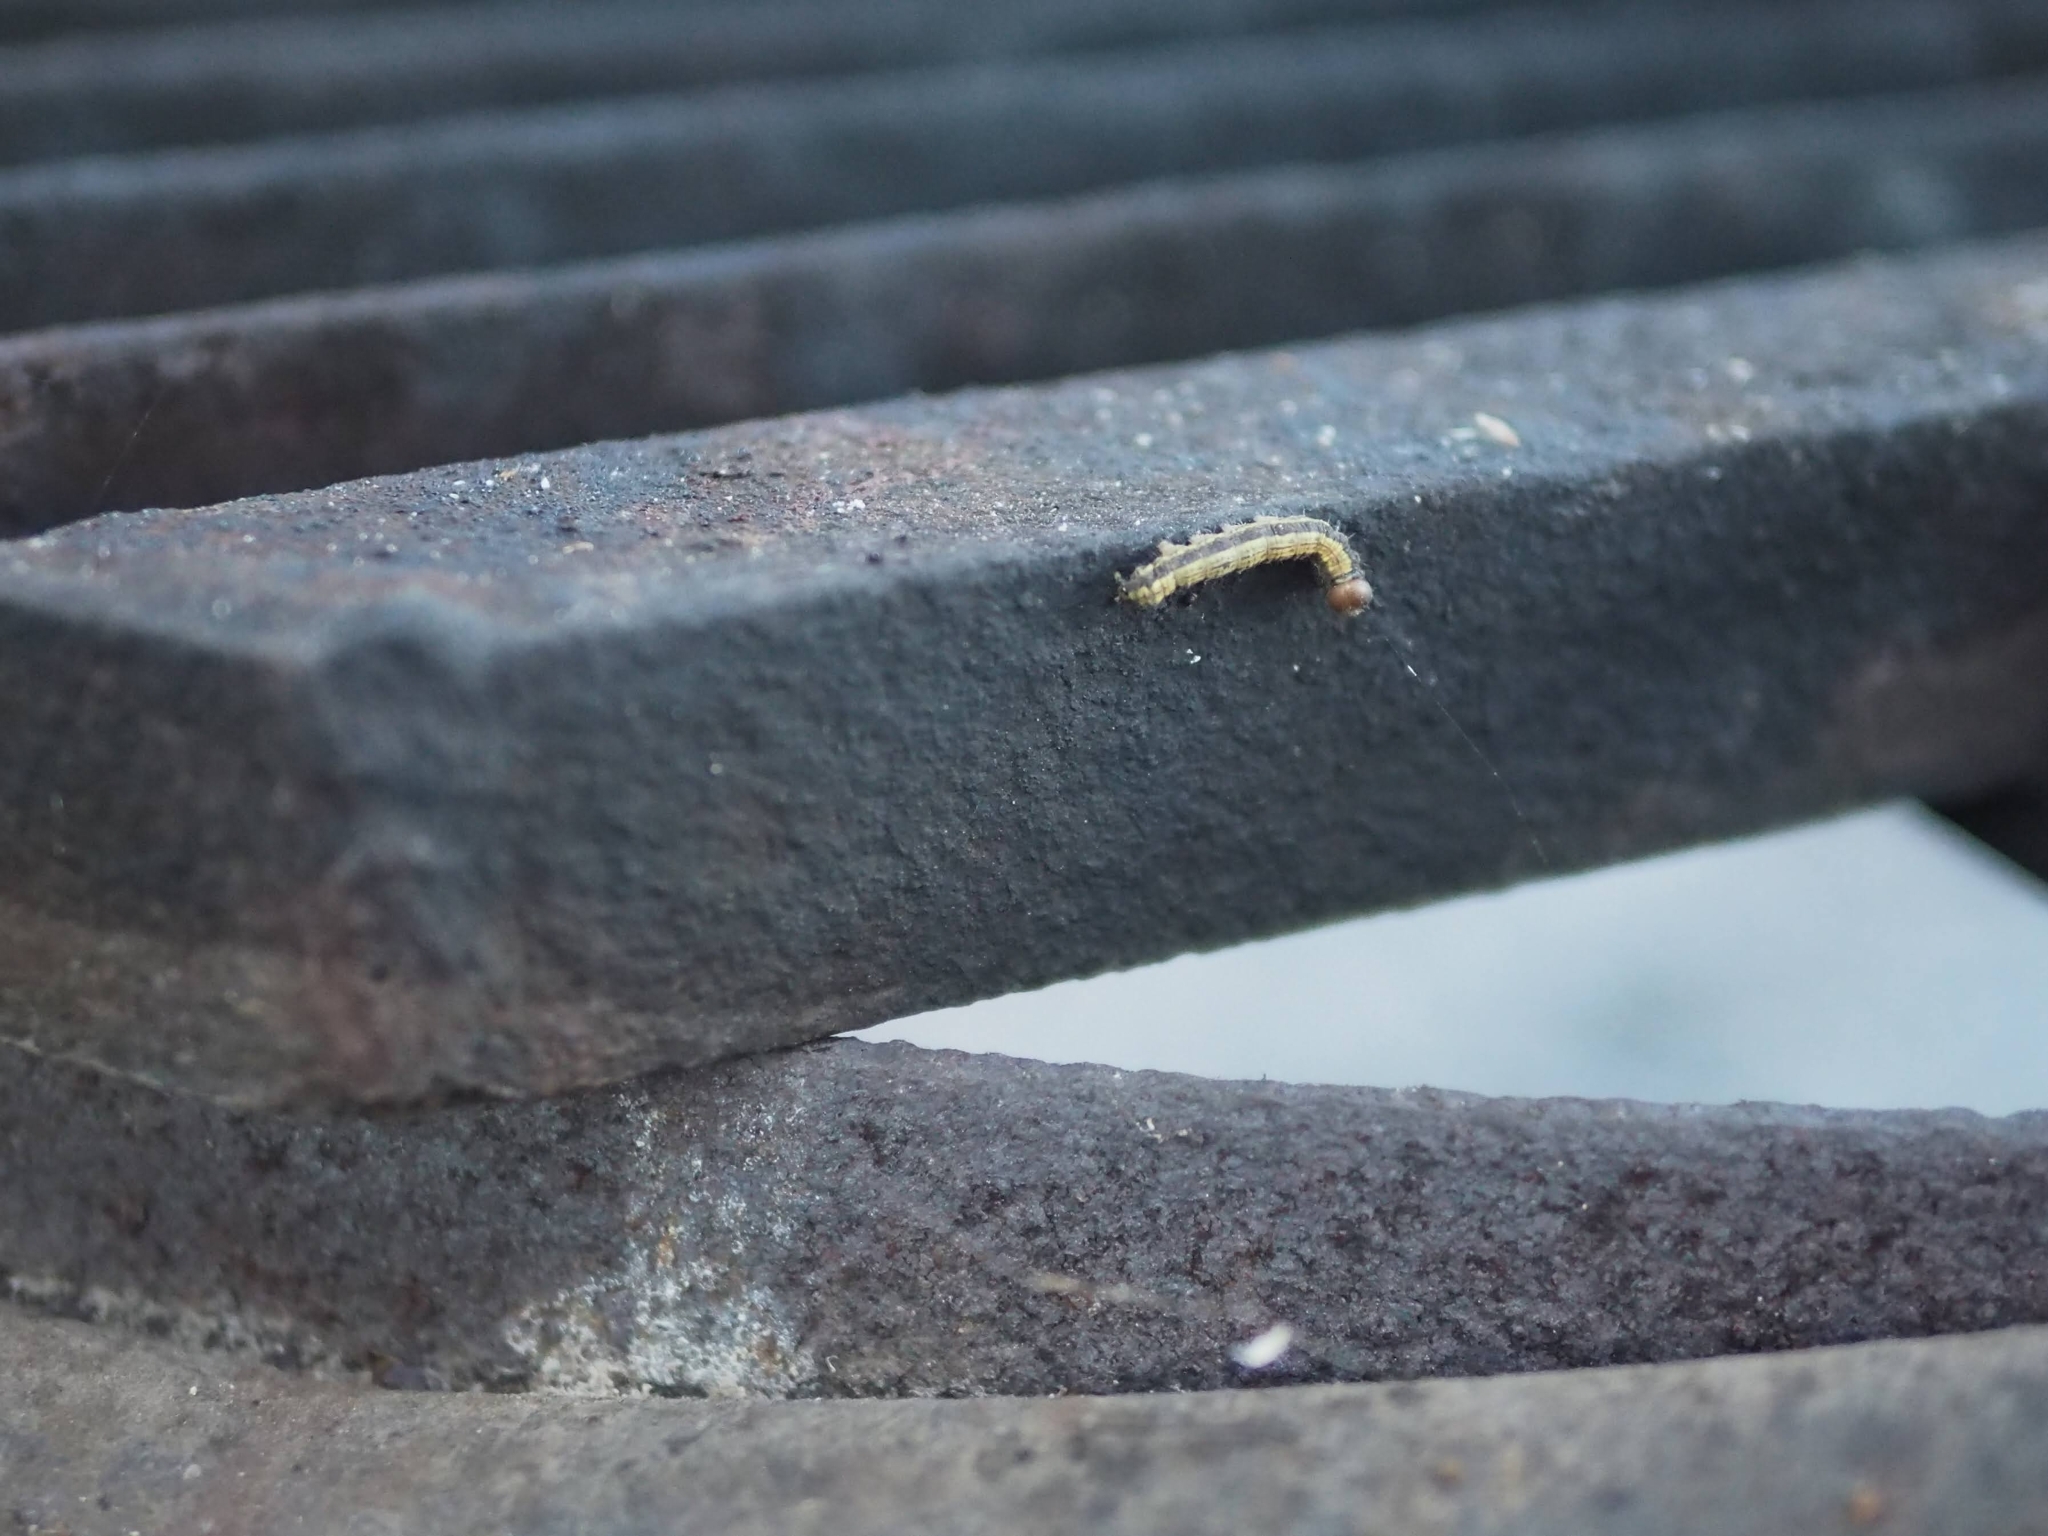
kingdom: Animalia
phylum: Arthropoda
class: Insecta
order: Lepidoptera
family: Notodontidae
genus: Phryganidia
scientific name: Phryganidia californica
